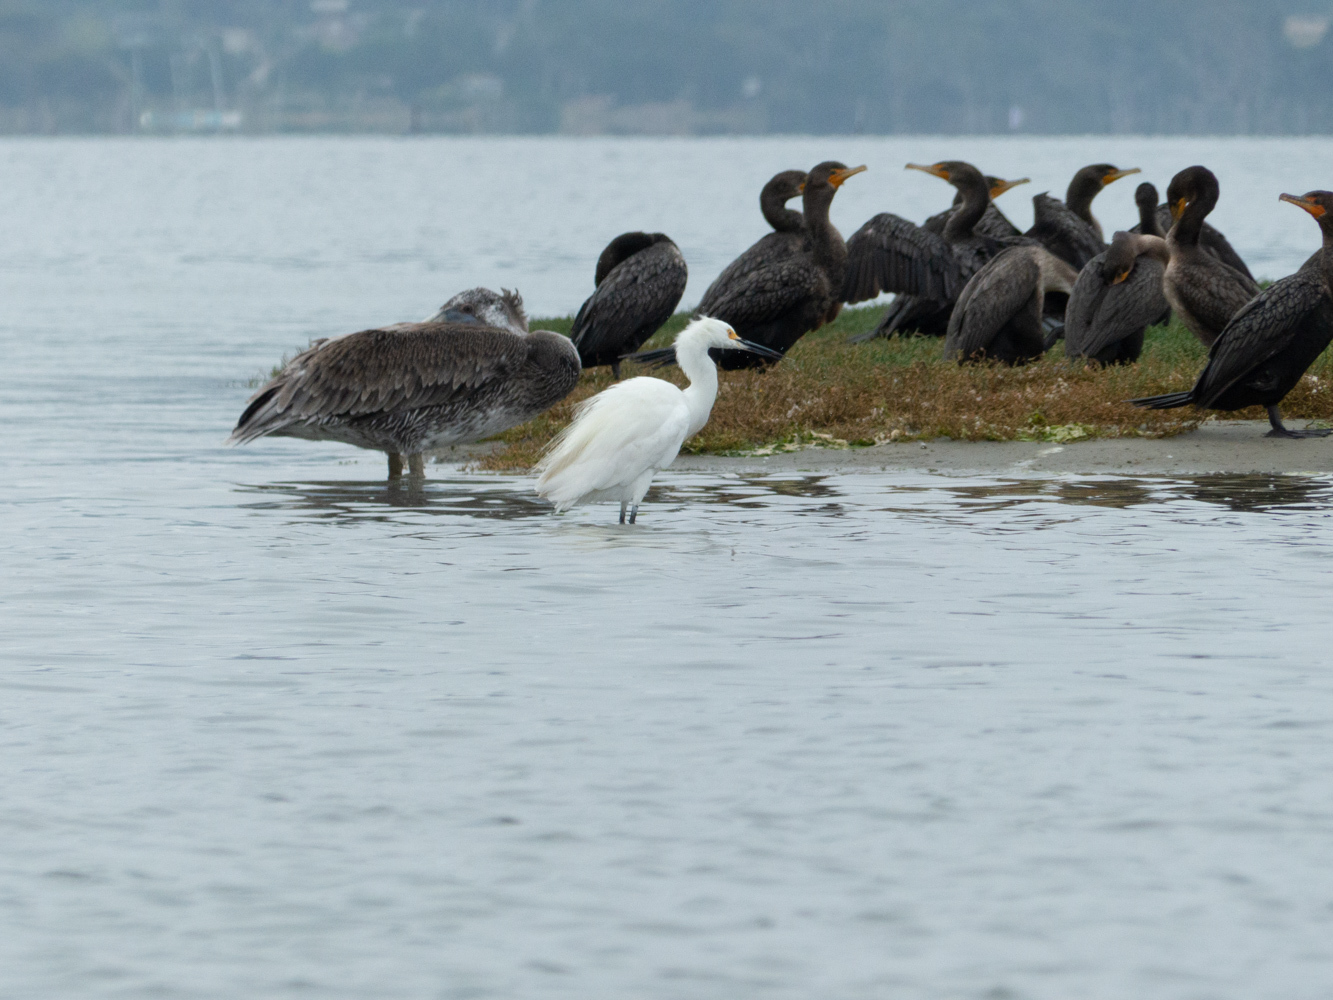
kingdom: Animalia
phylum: Chordata
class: Aves
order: Pelecaniformes
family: Ardeidae
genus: Egretta
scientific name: Egretta thula
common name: Snowy egret
